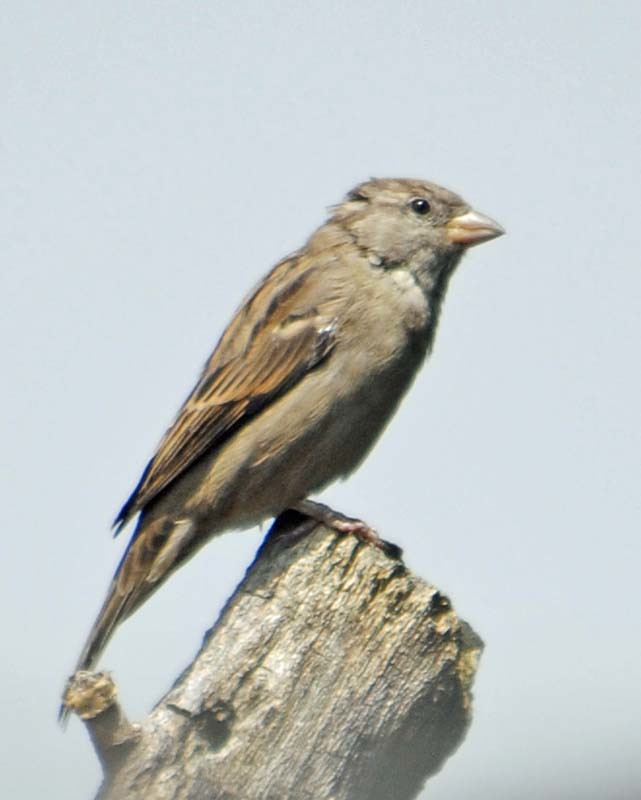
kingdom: Animalia
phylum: Chordata
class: Aves
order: Passeriformes
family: Passeridae
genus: Passer
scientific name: Passer domesticus
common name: House sparrow
